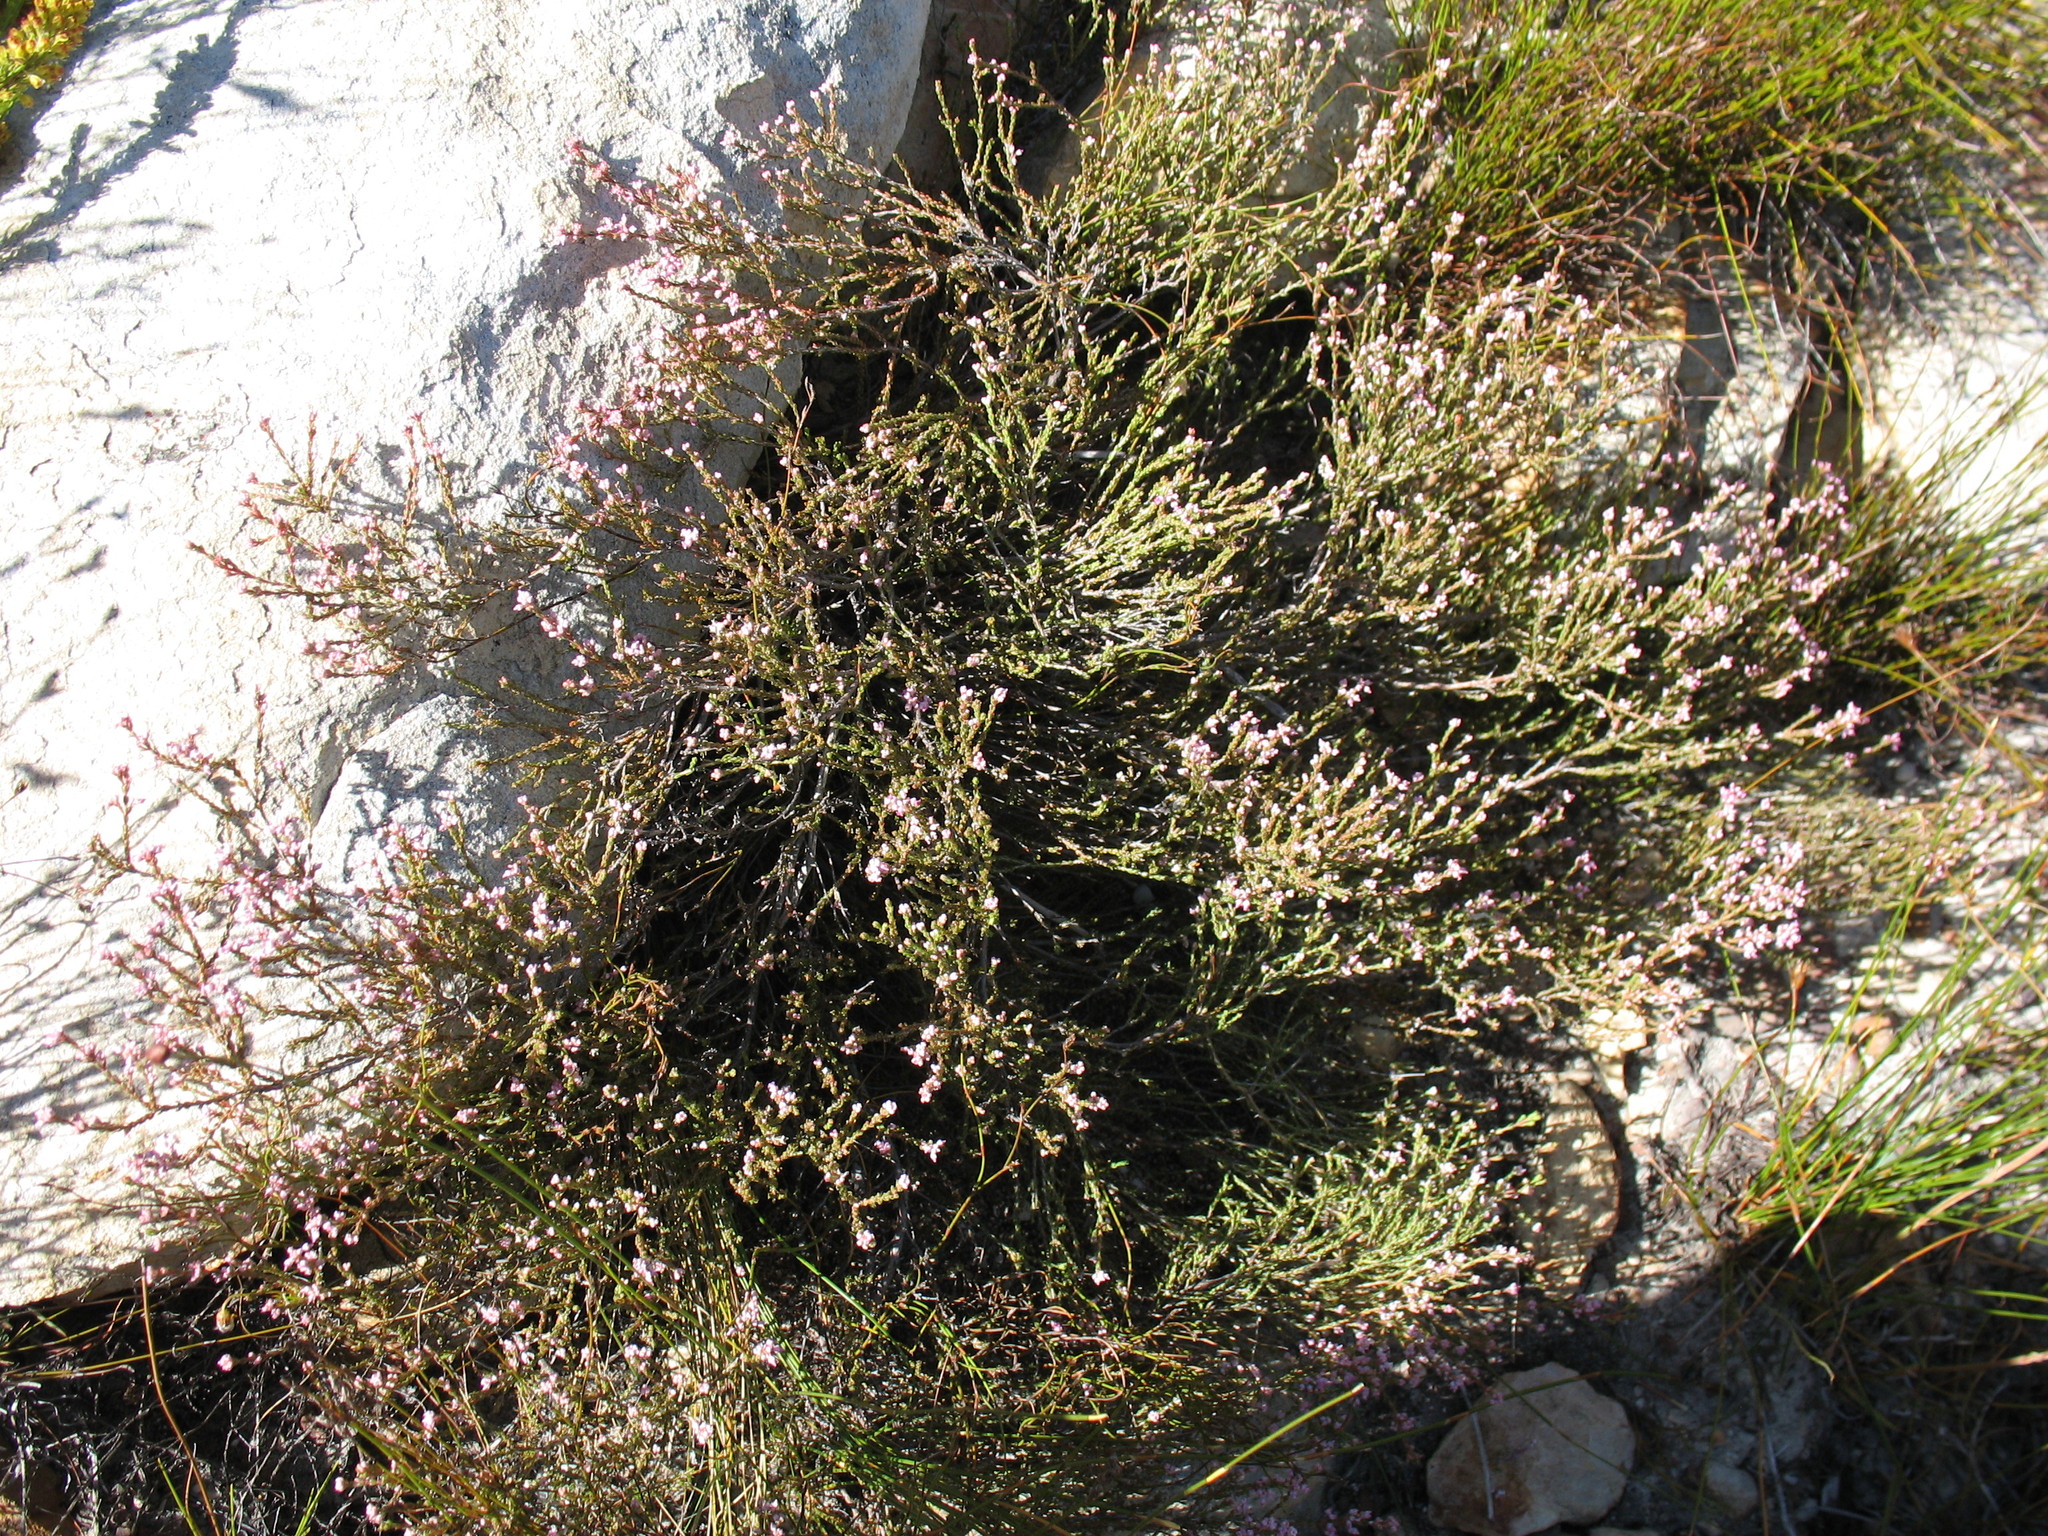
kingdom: Plantae
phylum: Tracheophyta
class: Magnoliopsida
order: Ericales
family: Ericaceae
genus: Erica
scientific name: Erica articularis
